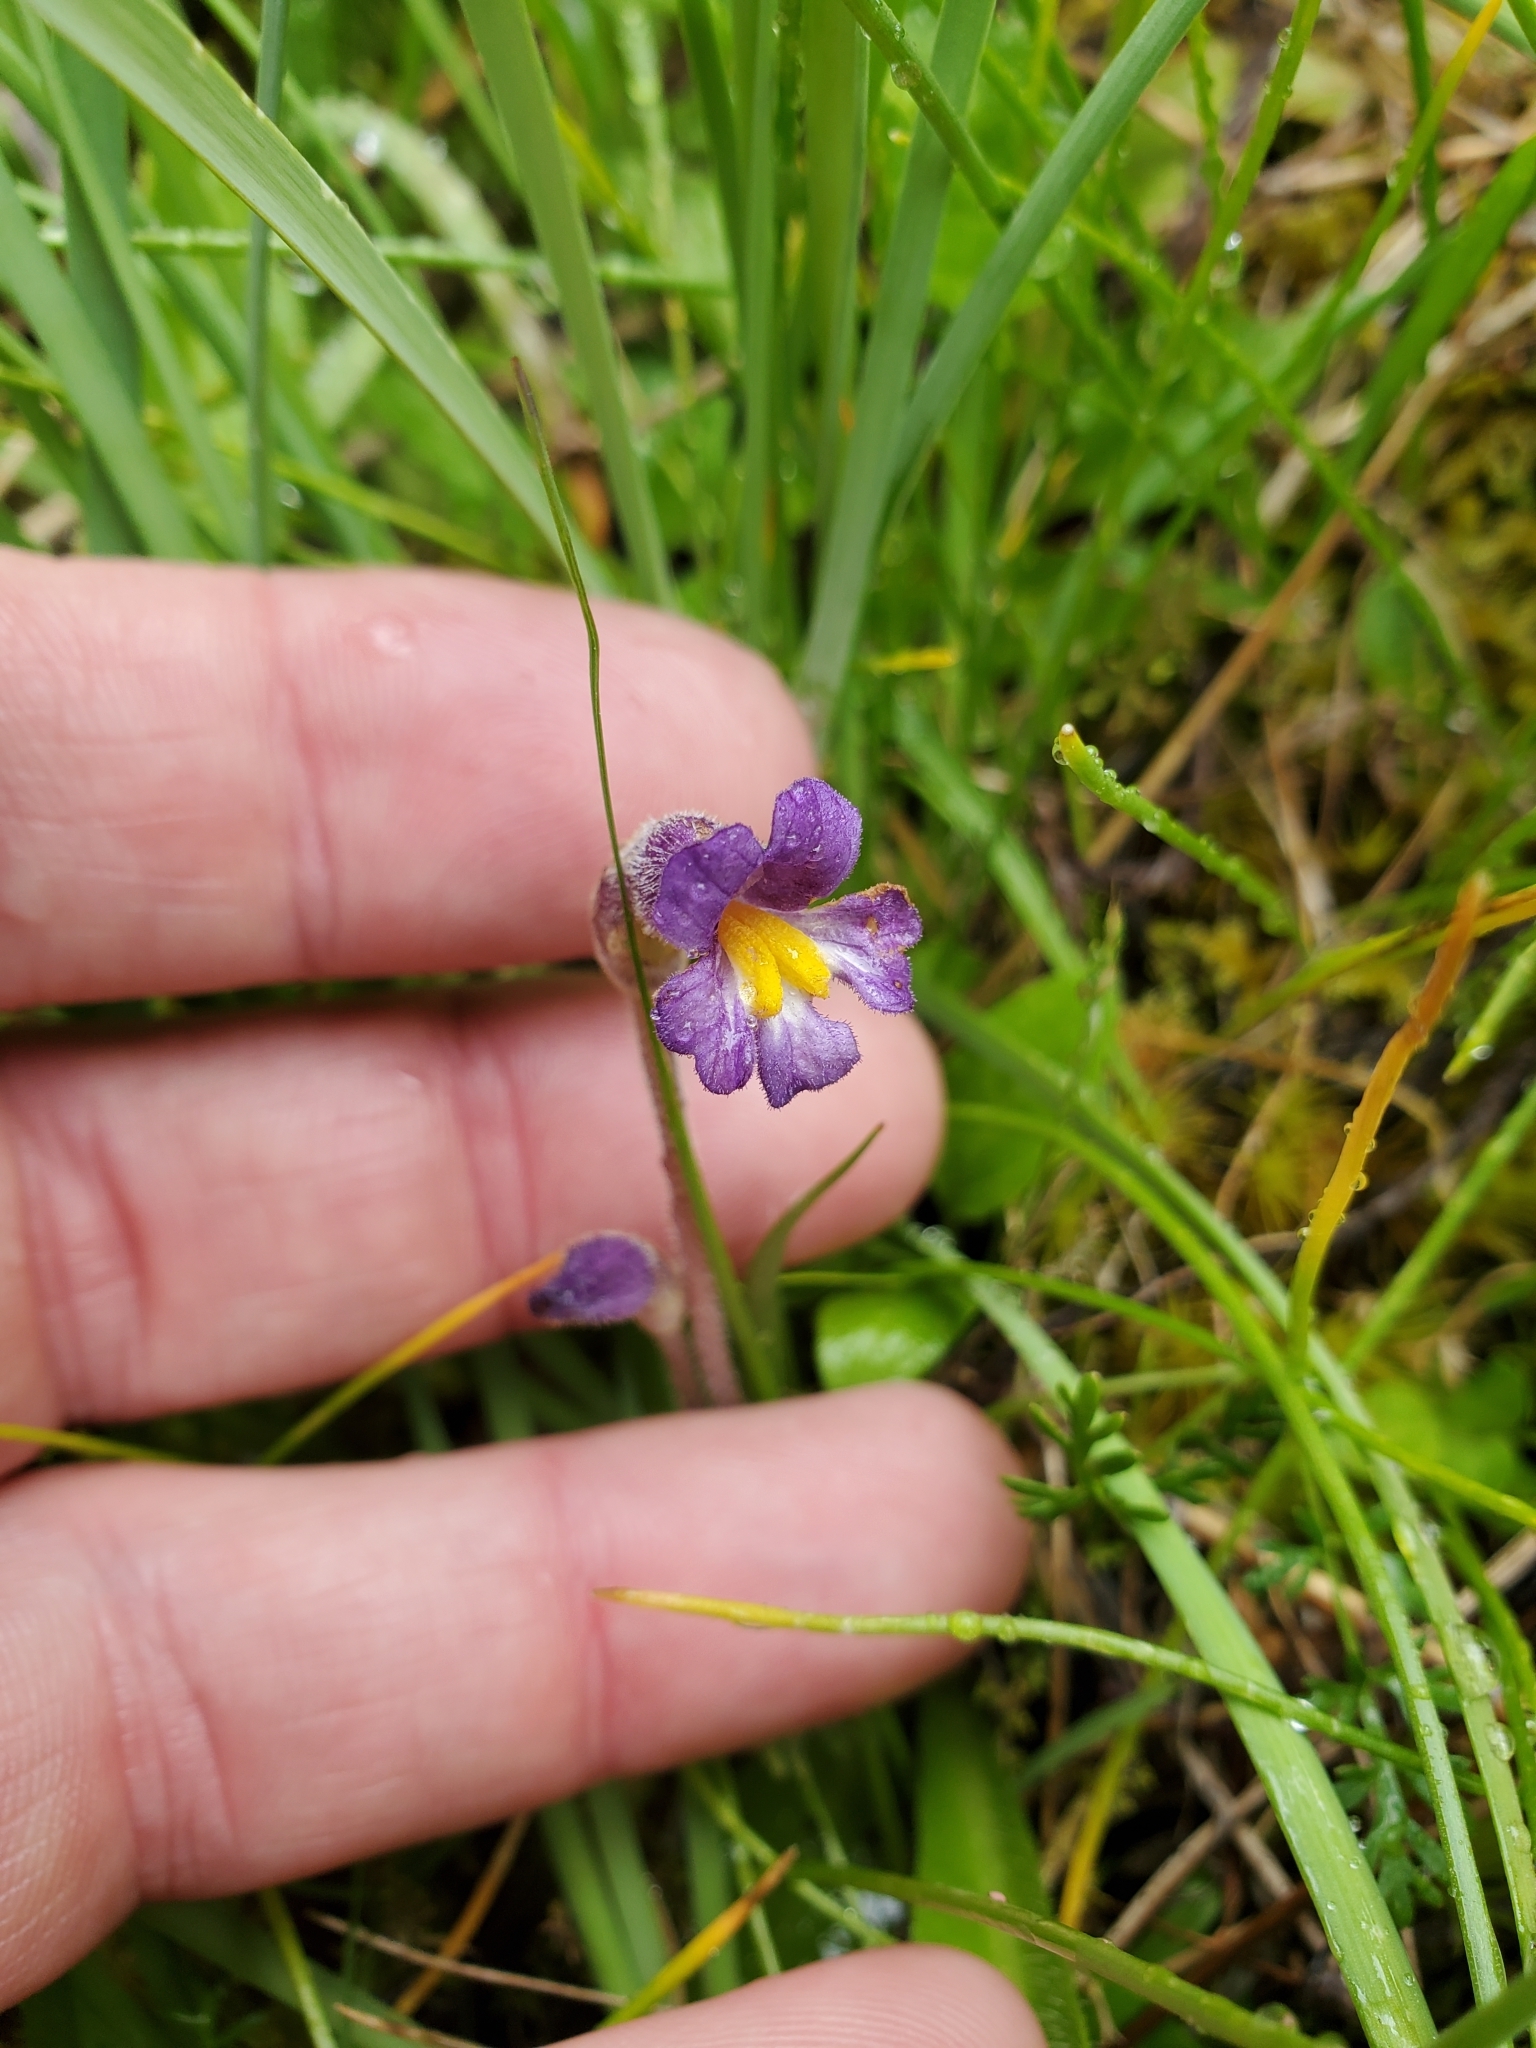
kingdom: Plantae
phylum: Tracheophyta
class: Magnoliopsida
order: Lamiales
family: Orobanchaceae
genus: Aphyllon
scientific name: Aphyllon uniflorum
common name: One-flowered broomrape
